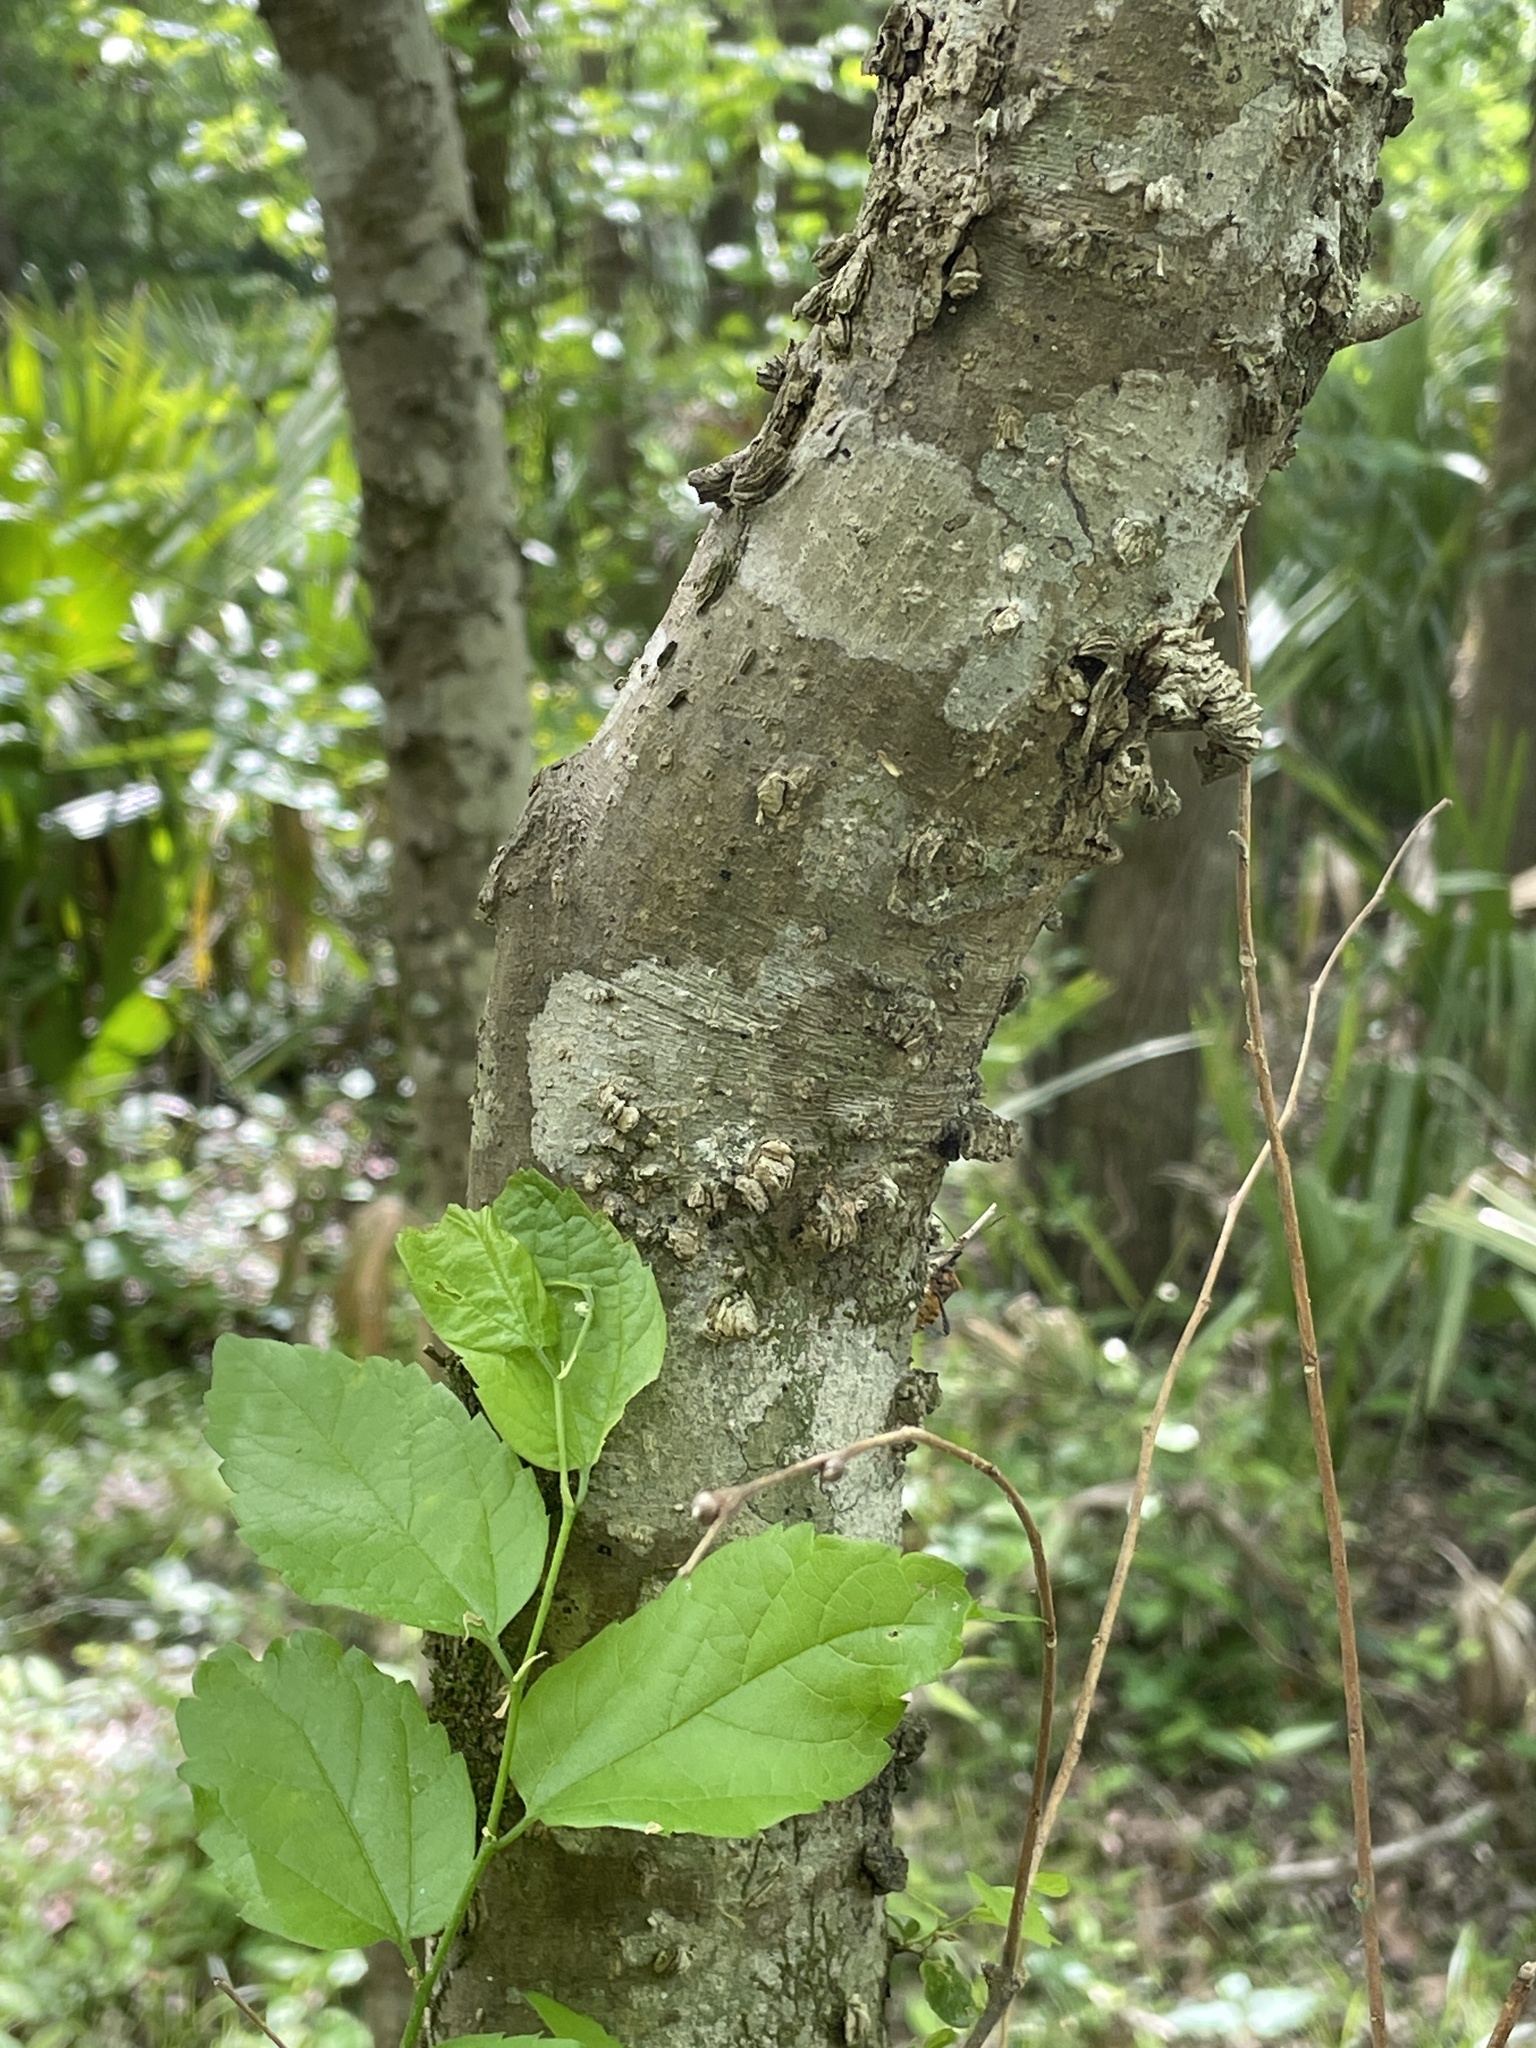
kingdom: Plantae
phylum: Tracheophyta
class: Magnoliopsida
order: Rosales
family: Cannabaceae
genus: Celtis
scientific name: Celtis laevigata
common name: Sugarberry
